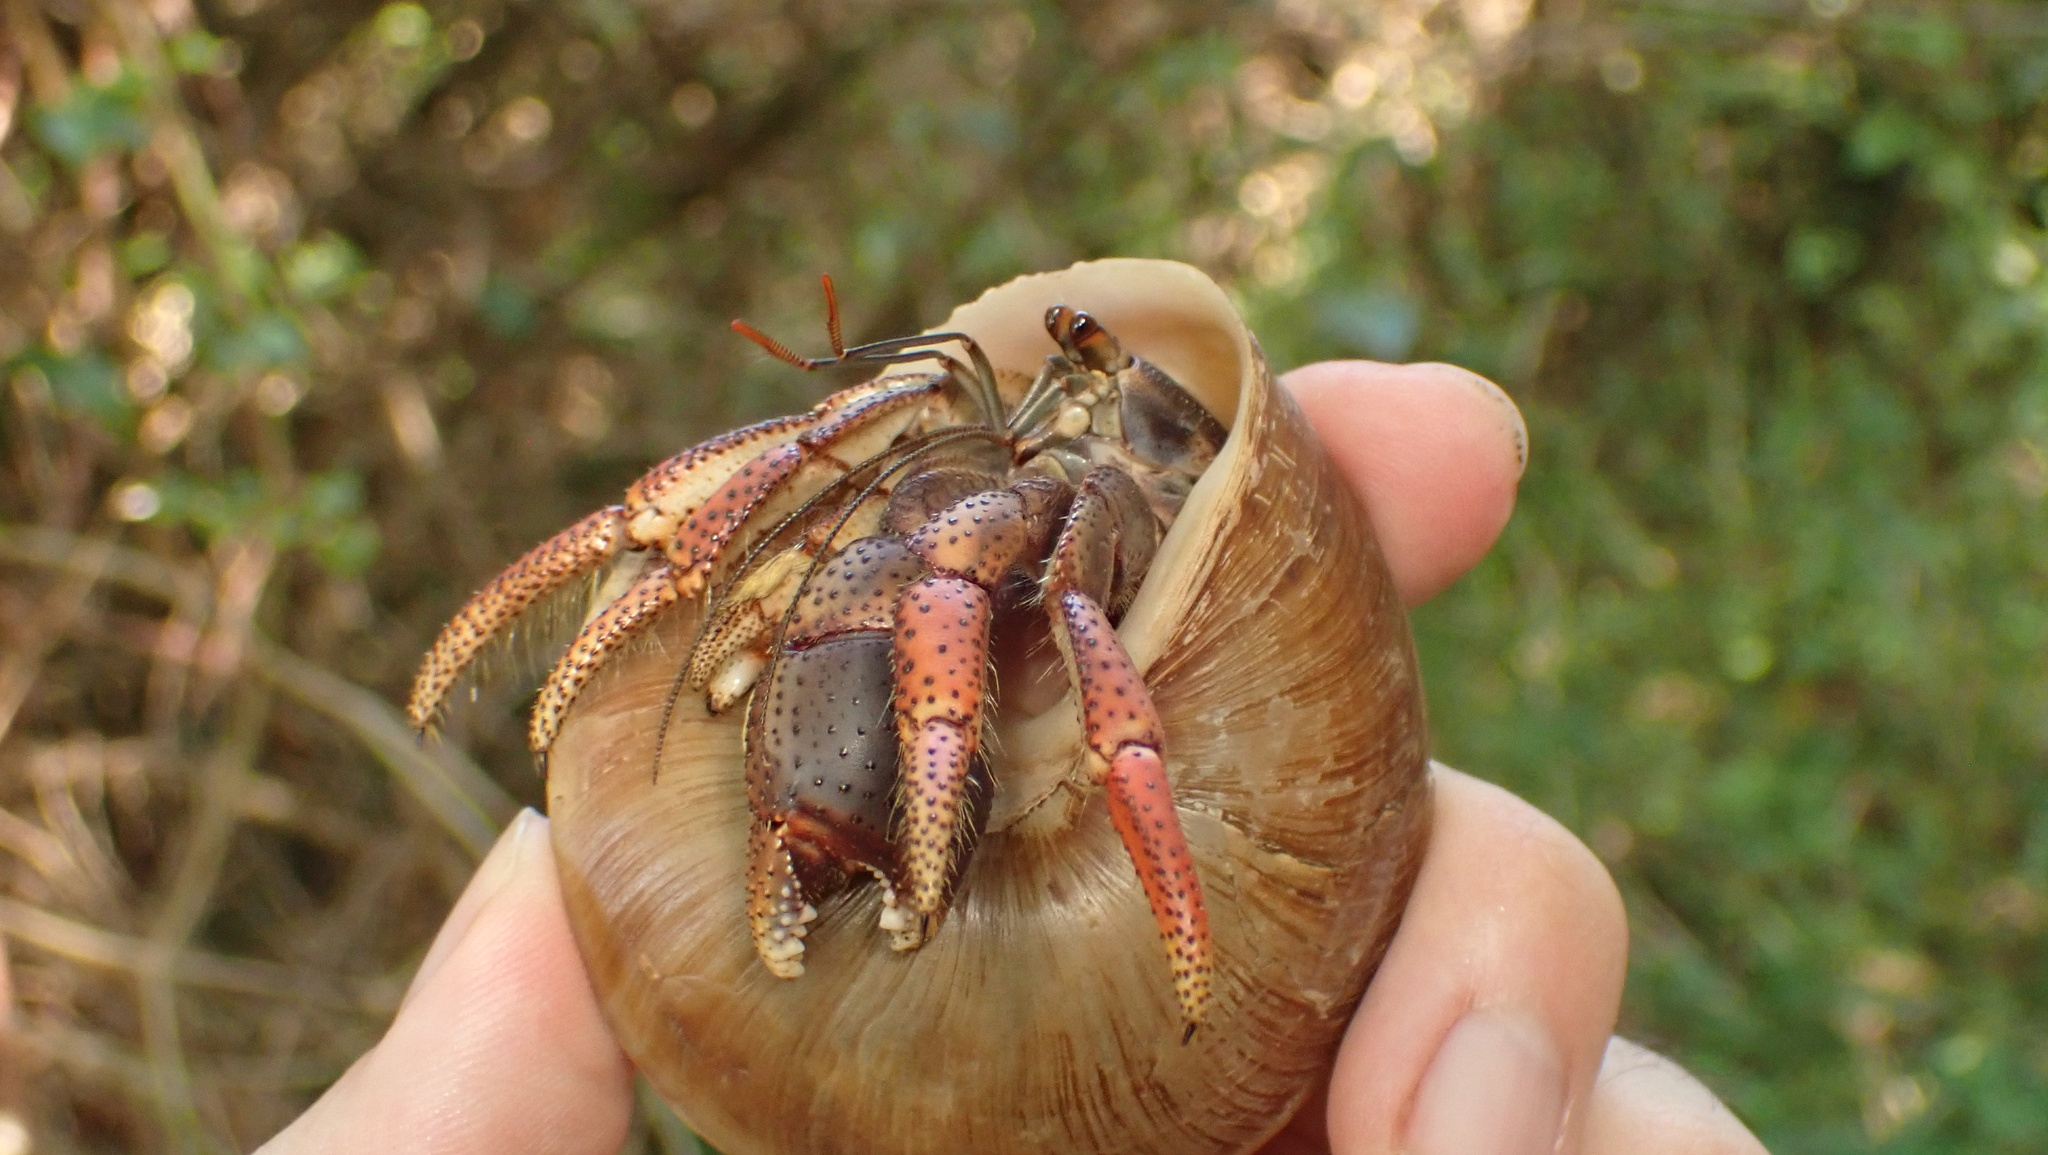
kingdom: Animalia
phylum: Arthropoda
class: Malacostraca
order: Decapoda
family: Coenobitidae
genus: Coenobita
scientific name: Coenobita clypeatus
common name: Caribbean hermit crab
